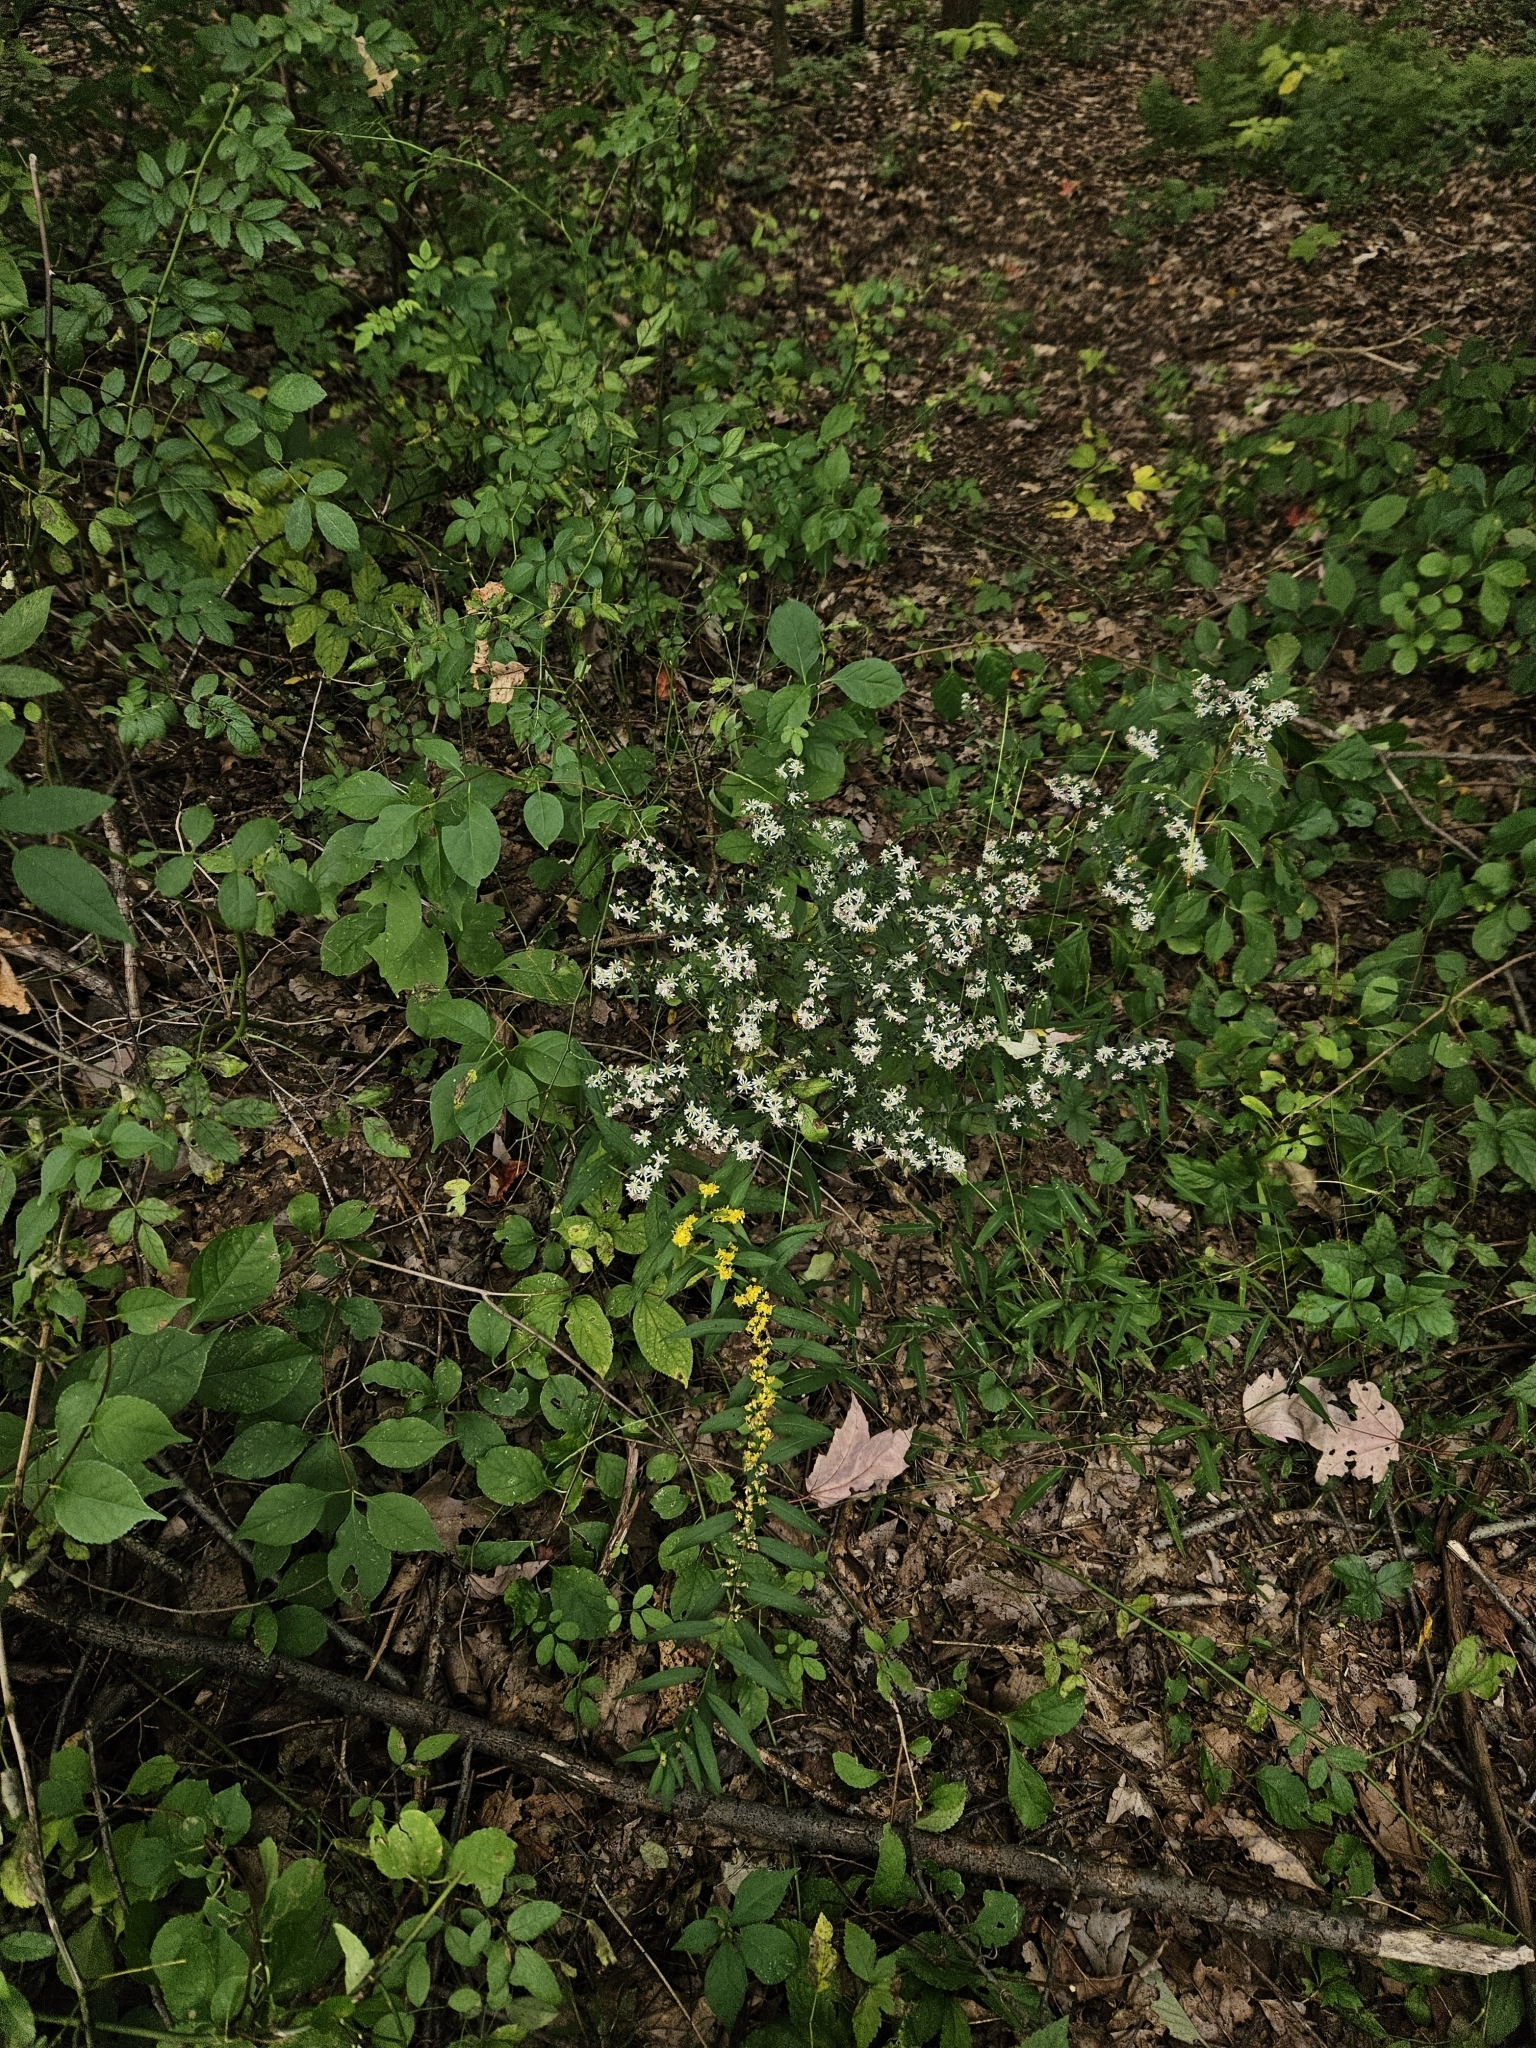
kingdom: Plantae
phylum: Tracheophyta
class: Magnoliopsida
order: Asterales
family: Asteraceae
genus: Solidago
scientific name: Solidago caesia
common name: Woodland goldenrod
